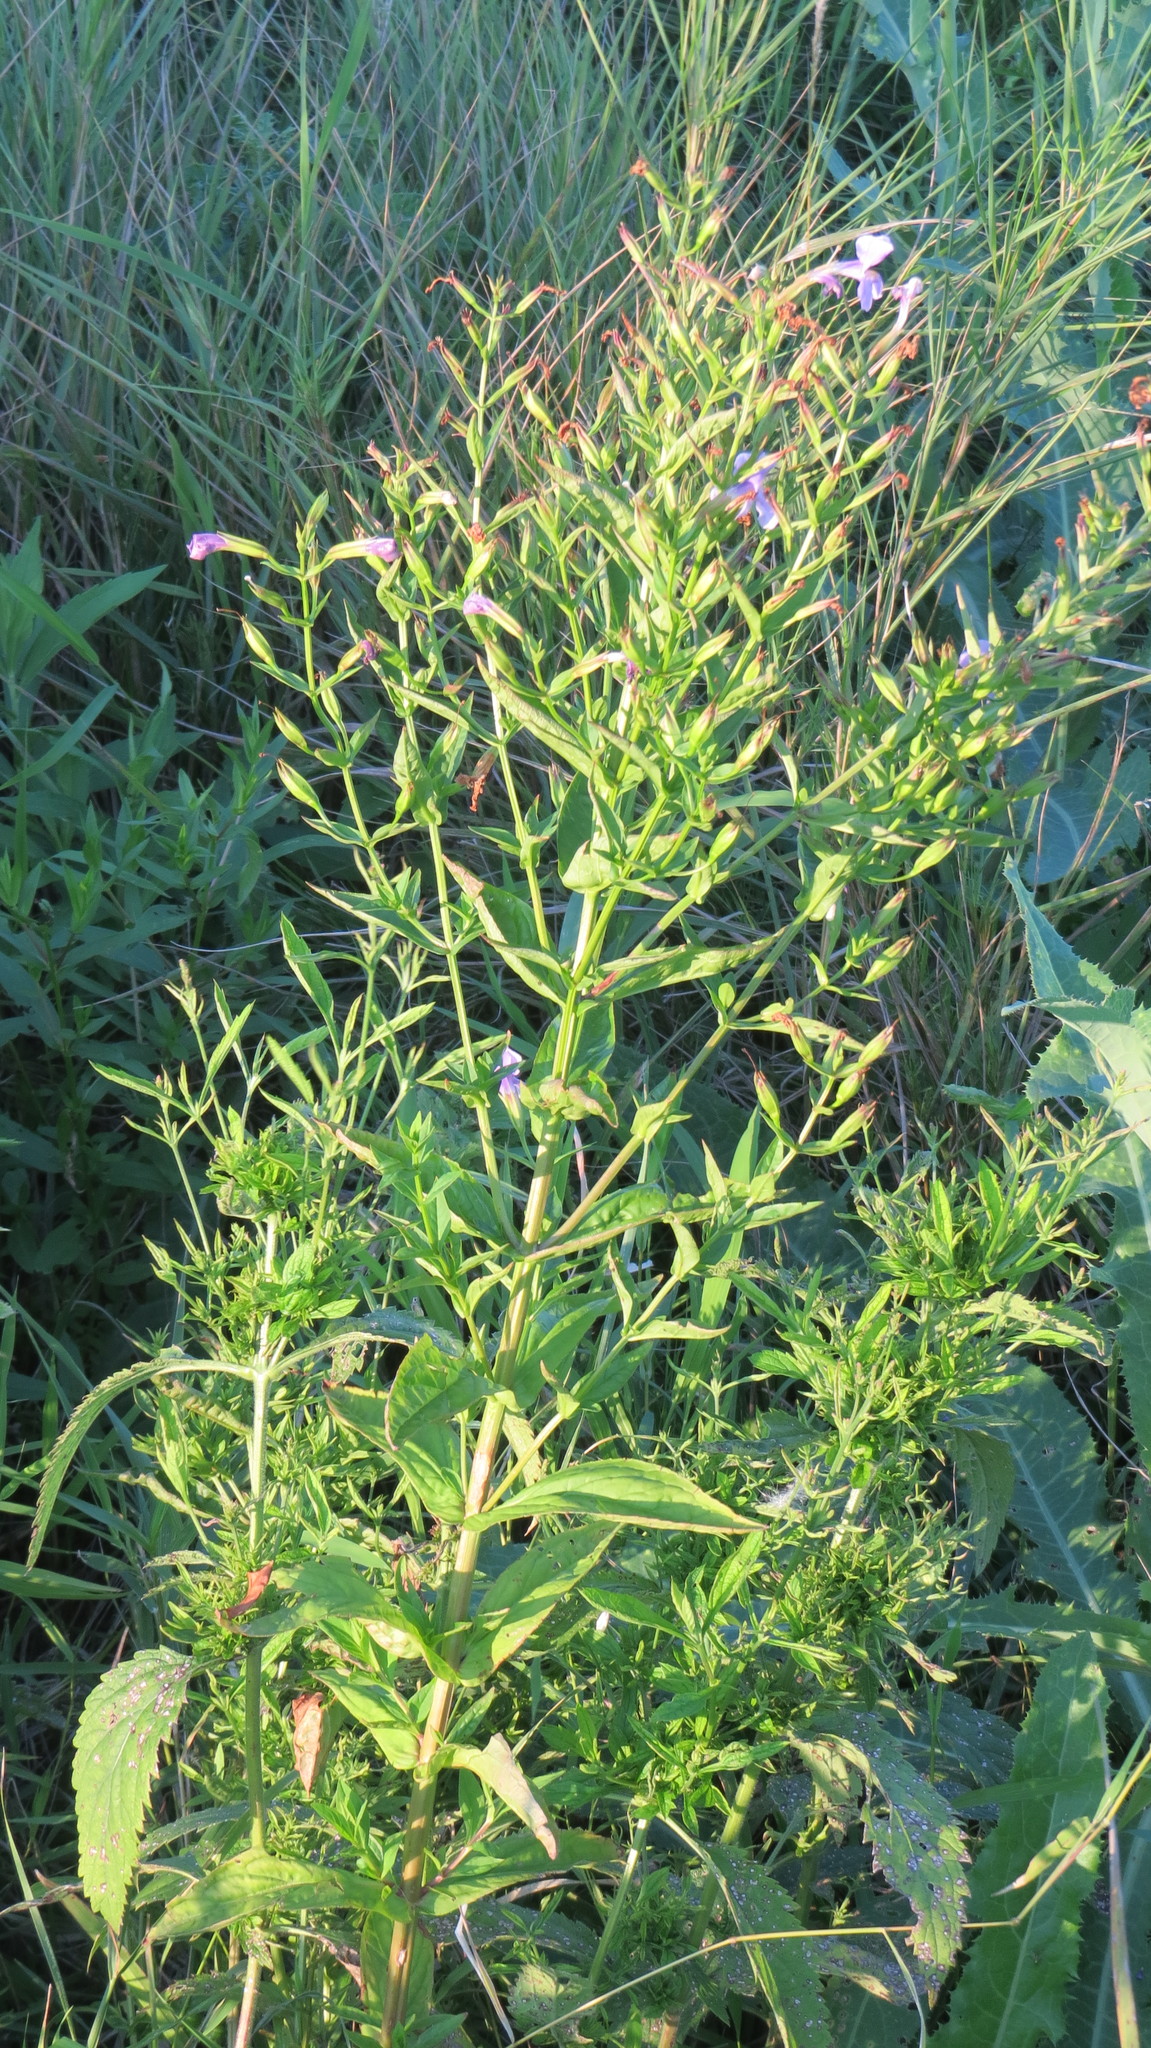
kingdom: Plantae
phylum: Tracheophyta
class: Magnoliopsida
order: Lamiales
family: Phrymaceae
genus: Mimulus
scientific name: Mimulus ringens
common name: Allegheny monkeyflower
